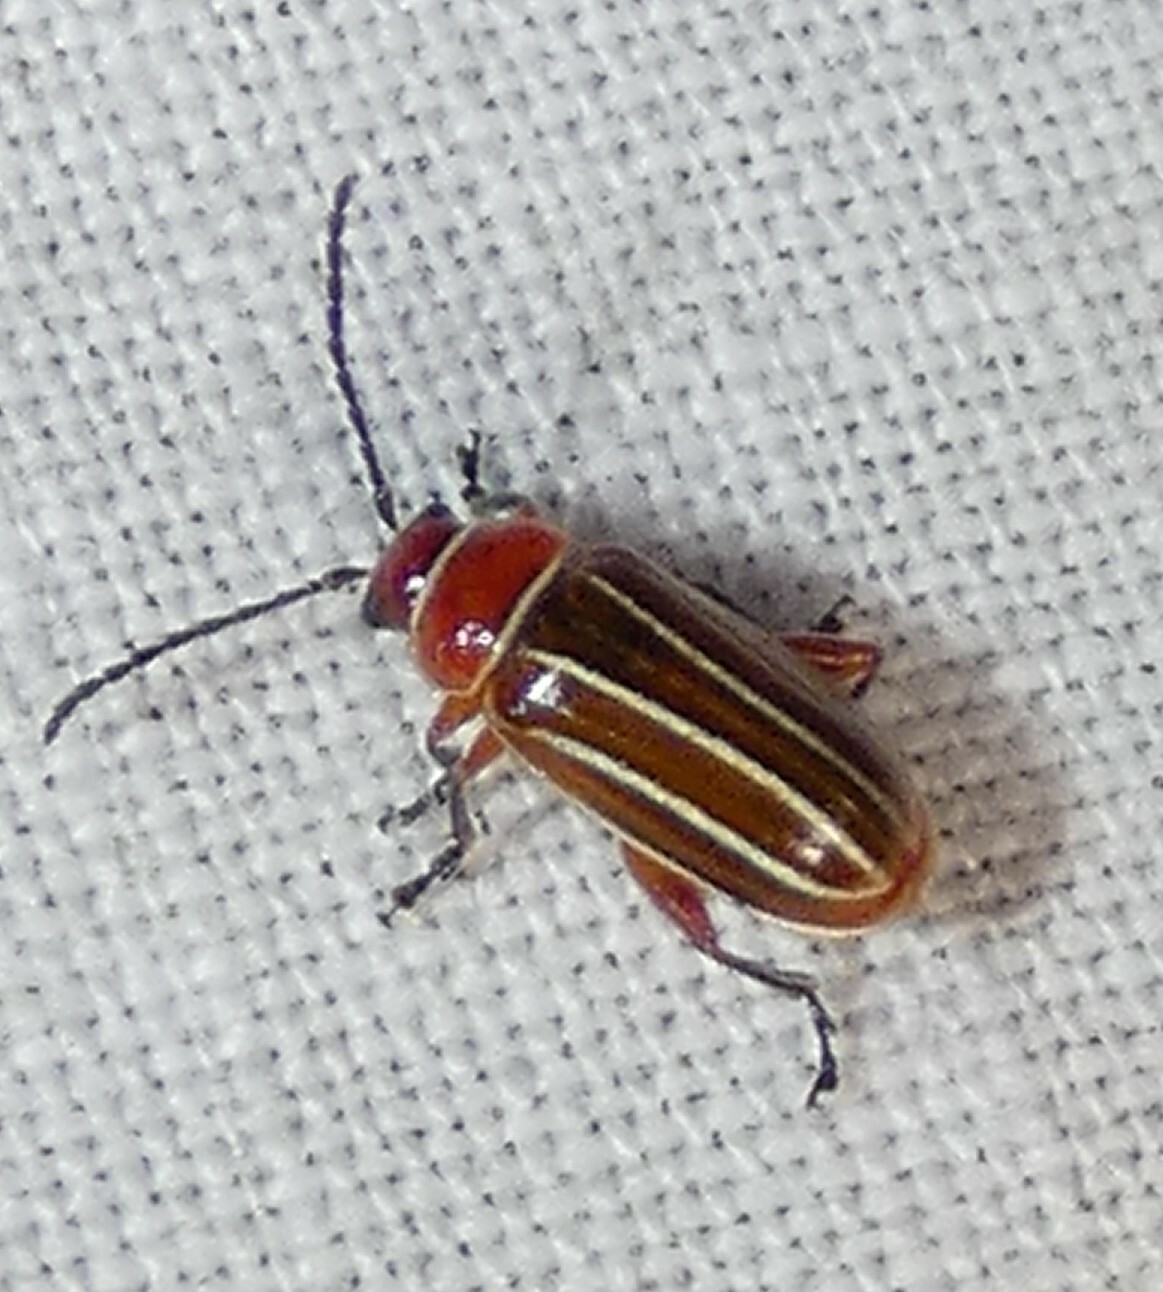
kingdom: Animalia
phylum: Arthropoda
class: Insecta
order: Coleoptera
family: Chrysomelidae
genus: Disonycha
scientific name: Disonycha conjugata
